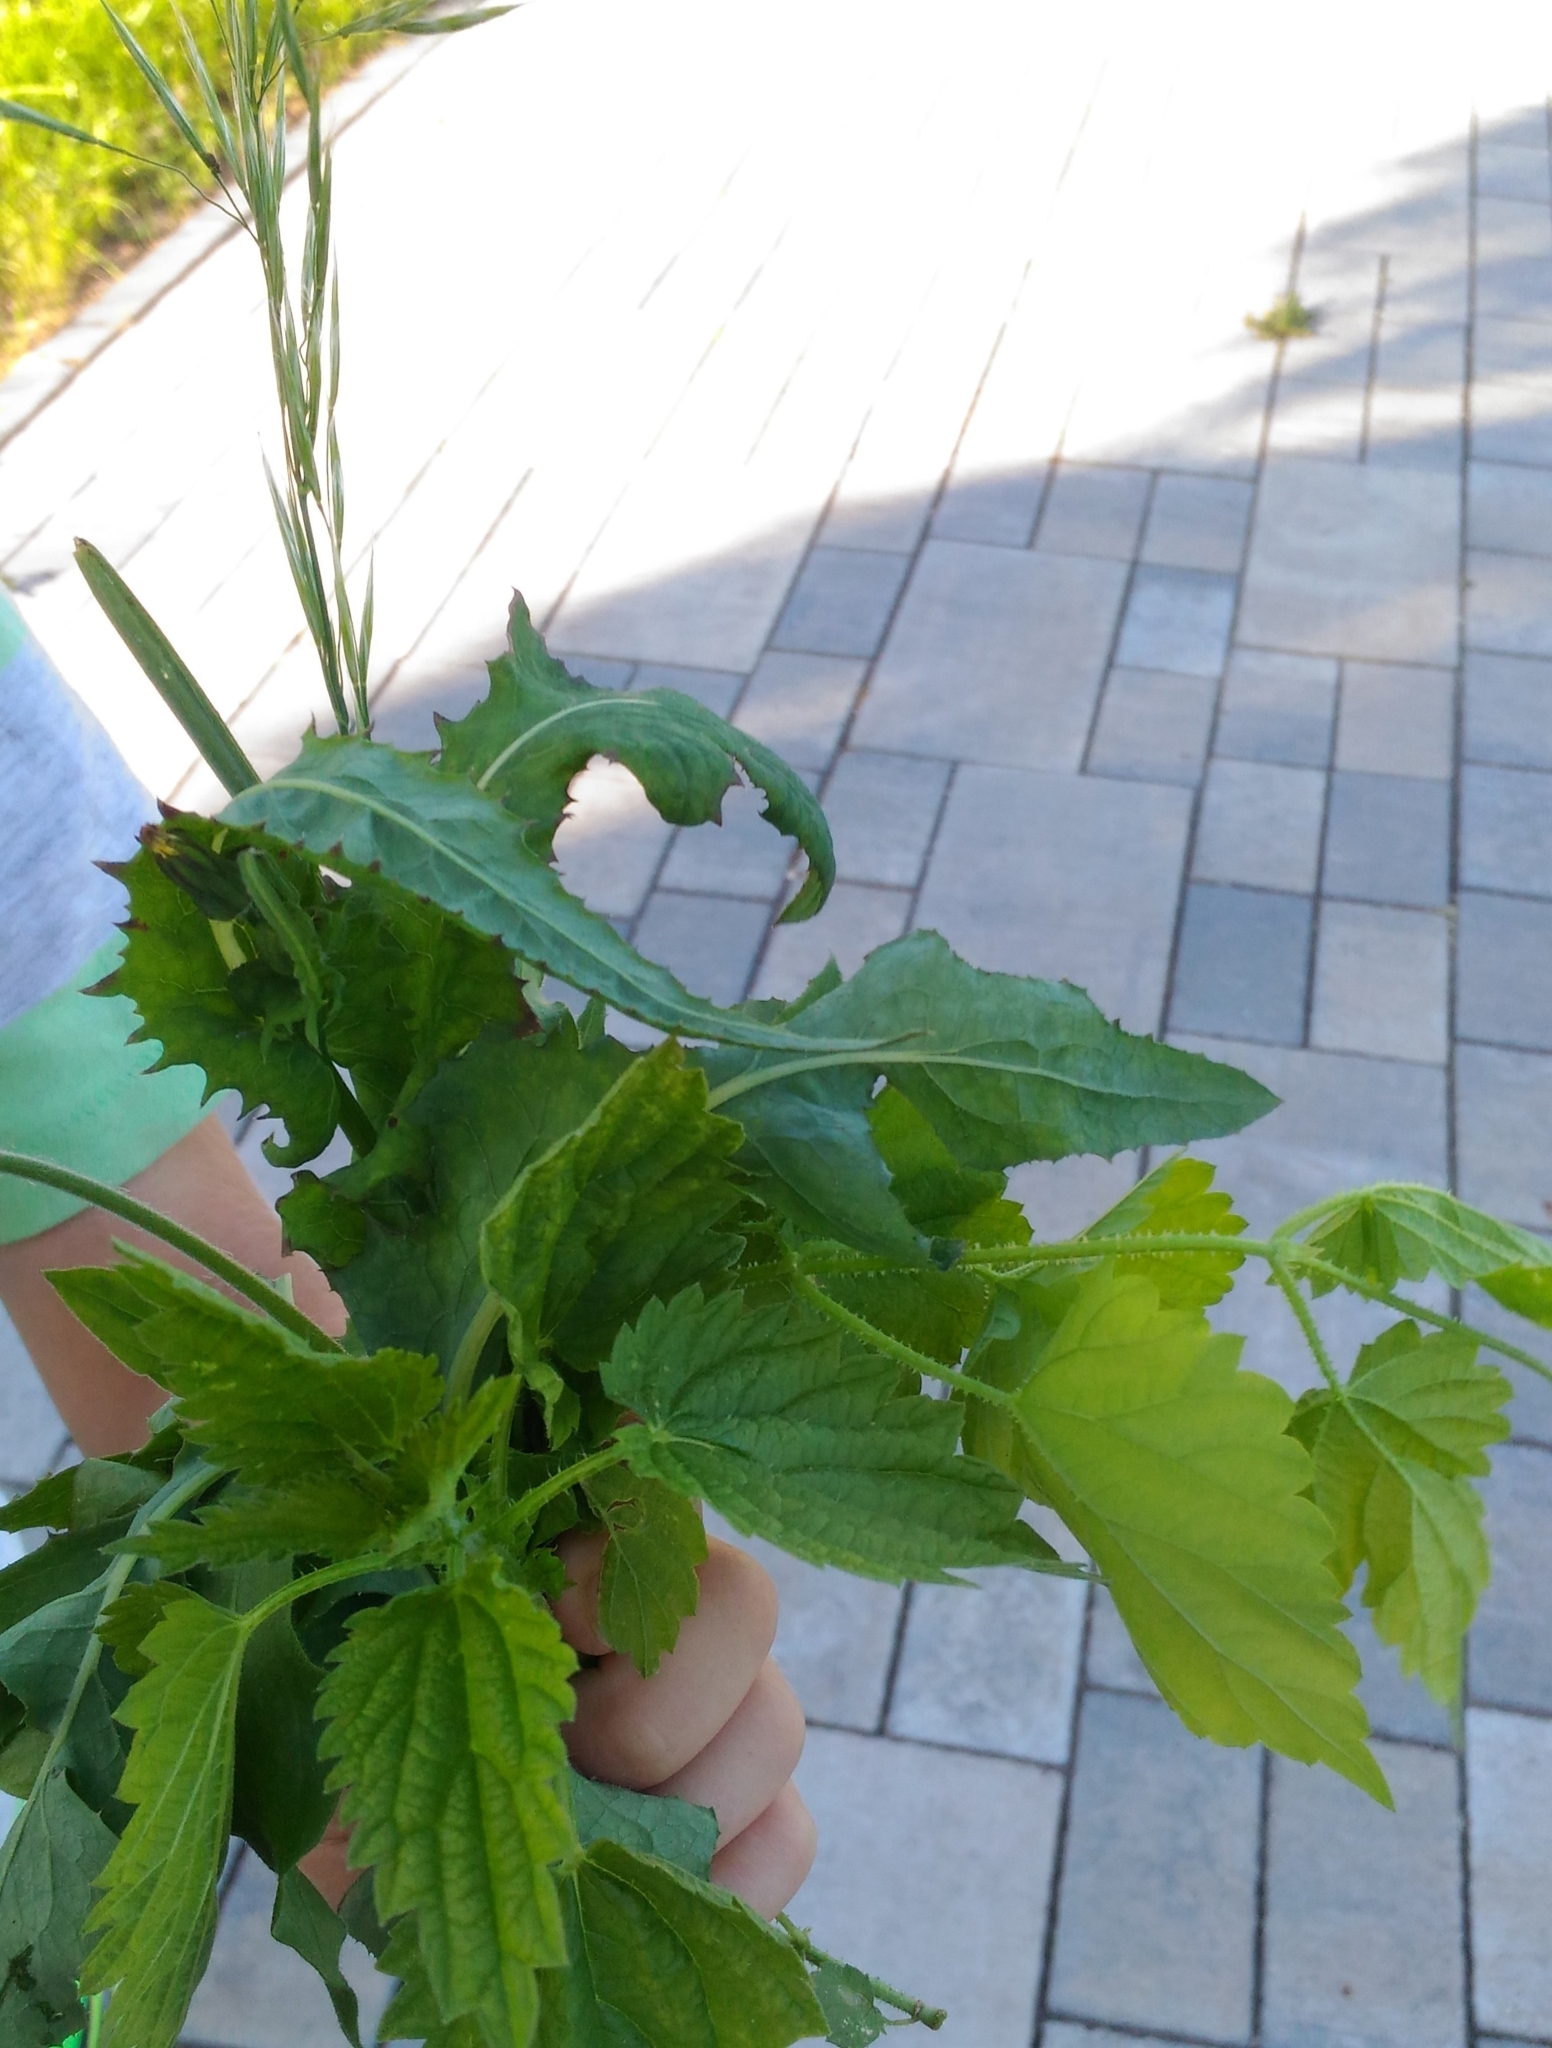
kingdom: Plantae
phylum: Tracheophyta
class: Magnoliopsida
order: Rosales
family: Urticaceae
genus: Urtica
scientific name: Urtica dioica
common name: Common nettle
